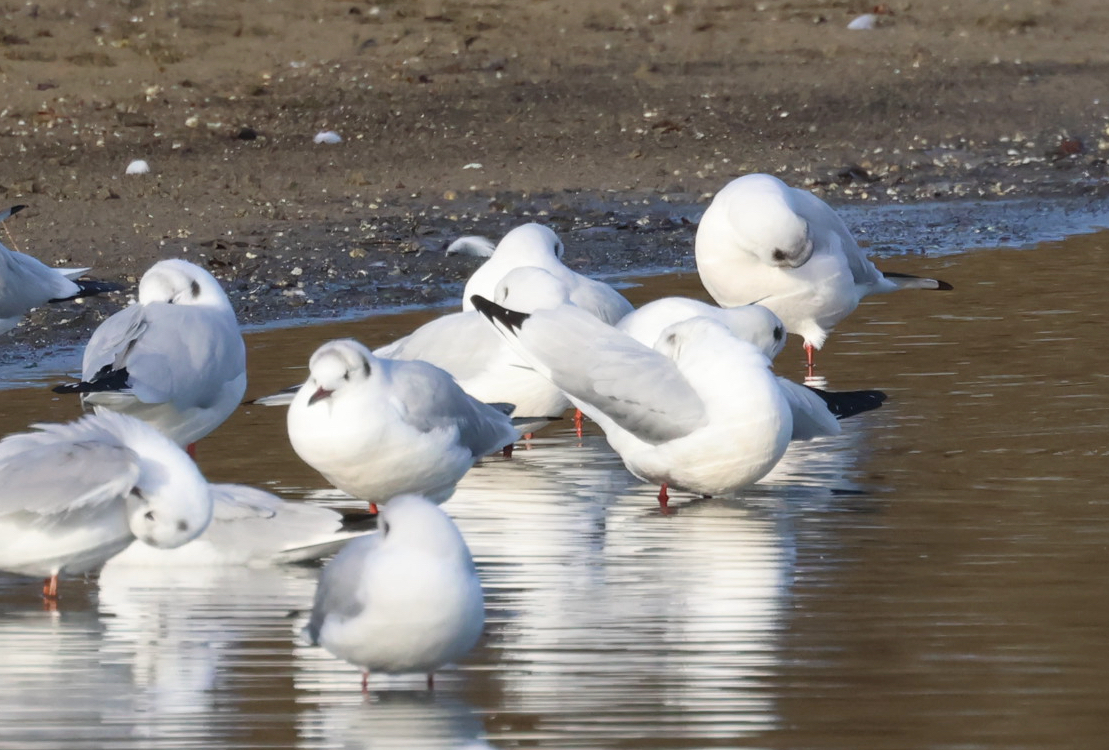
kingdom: Animalia
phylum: Chordata
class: Aves
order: Charadriiformes
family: Laridae
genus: Chroicocephalus
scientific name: Chroicocephalus ridibundus
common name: Black-headed gull
